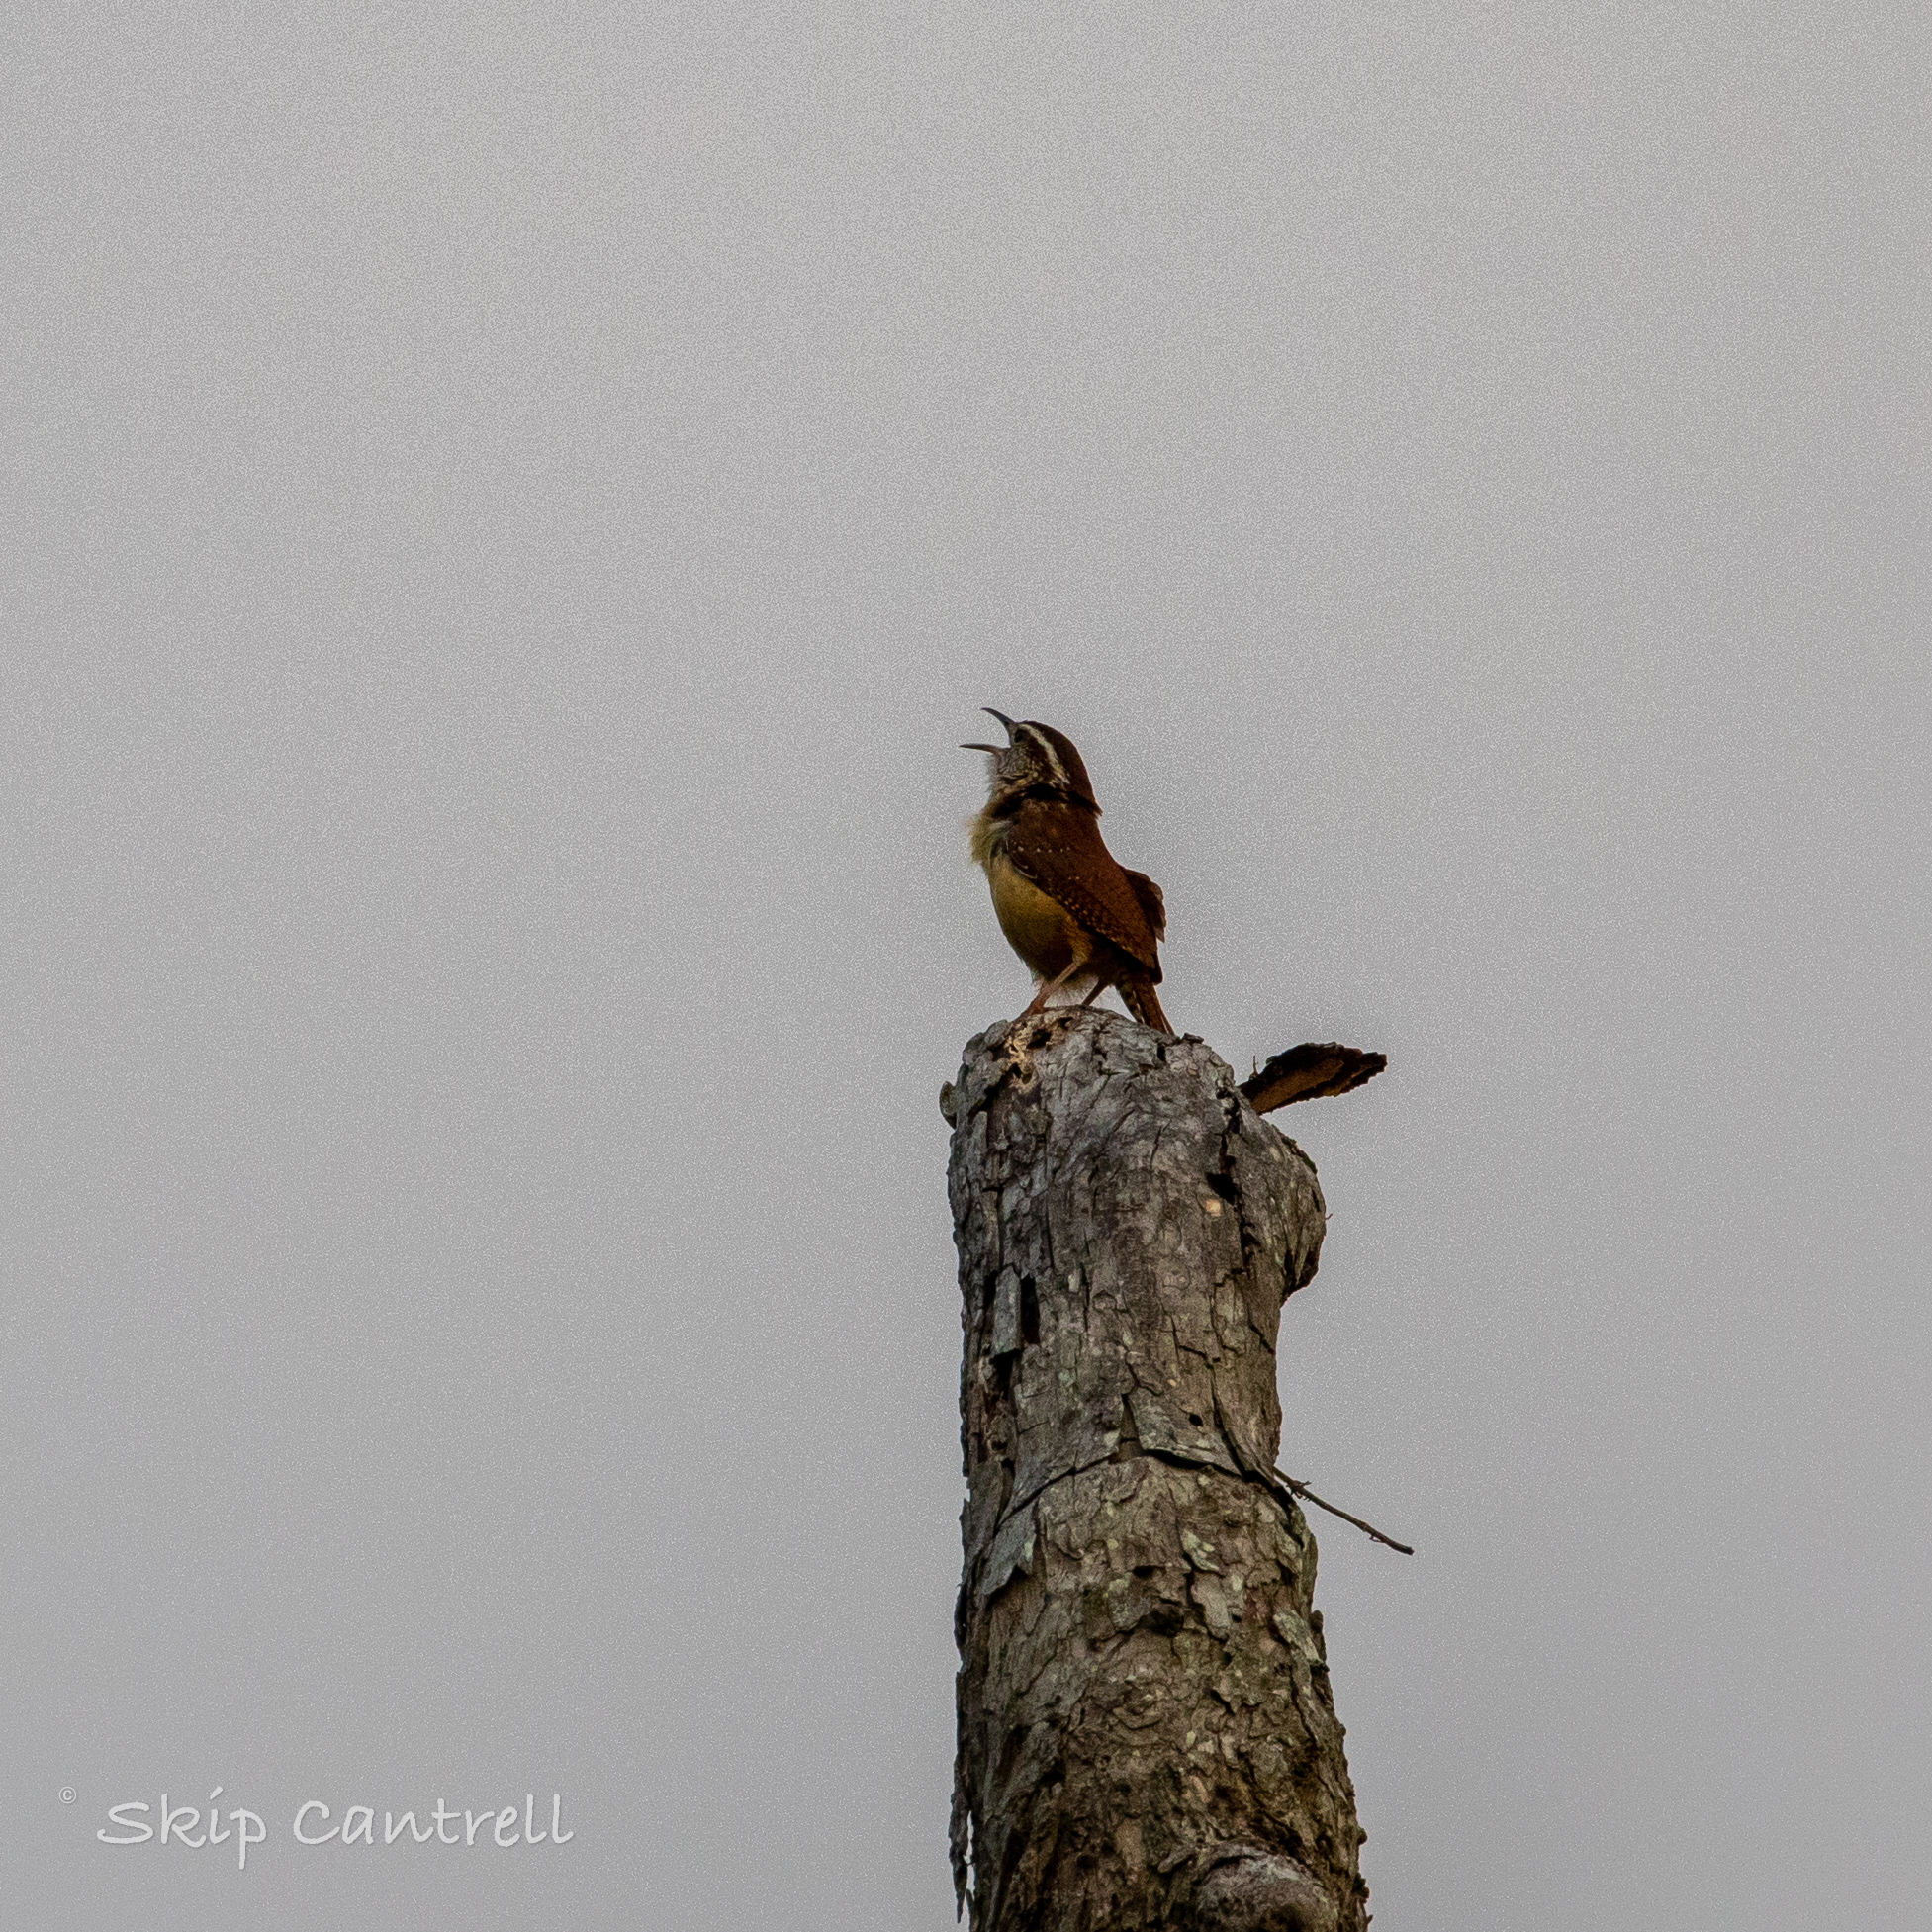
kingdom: Animalia
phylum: Chordata
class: Aves
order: Passeriformes
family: Troglodytidae
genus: Thryothorus
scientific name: Thryothorus ludovicianus
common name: Carolina wren
